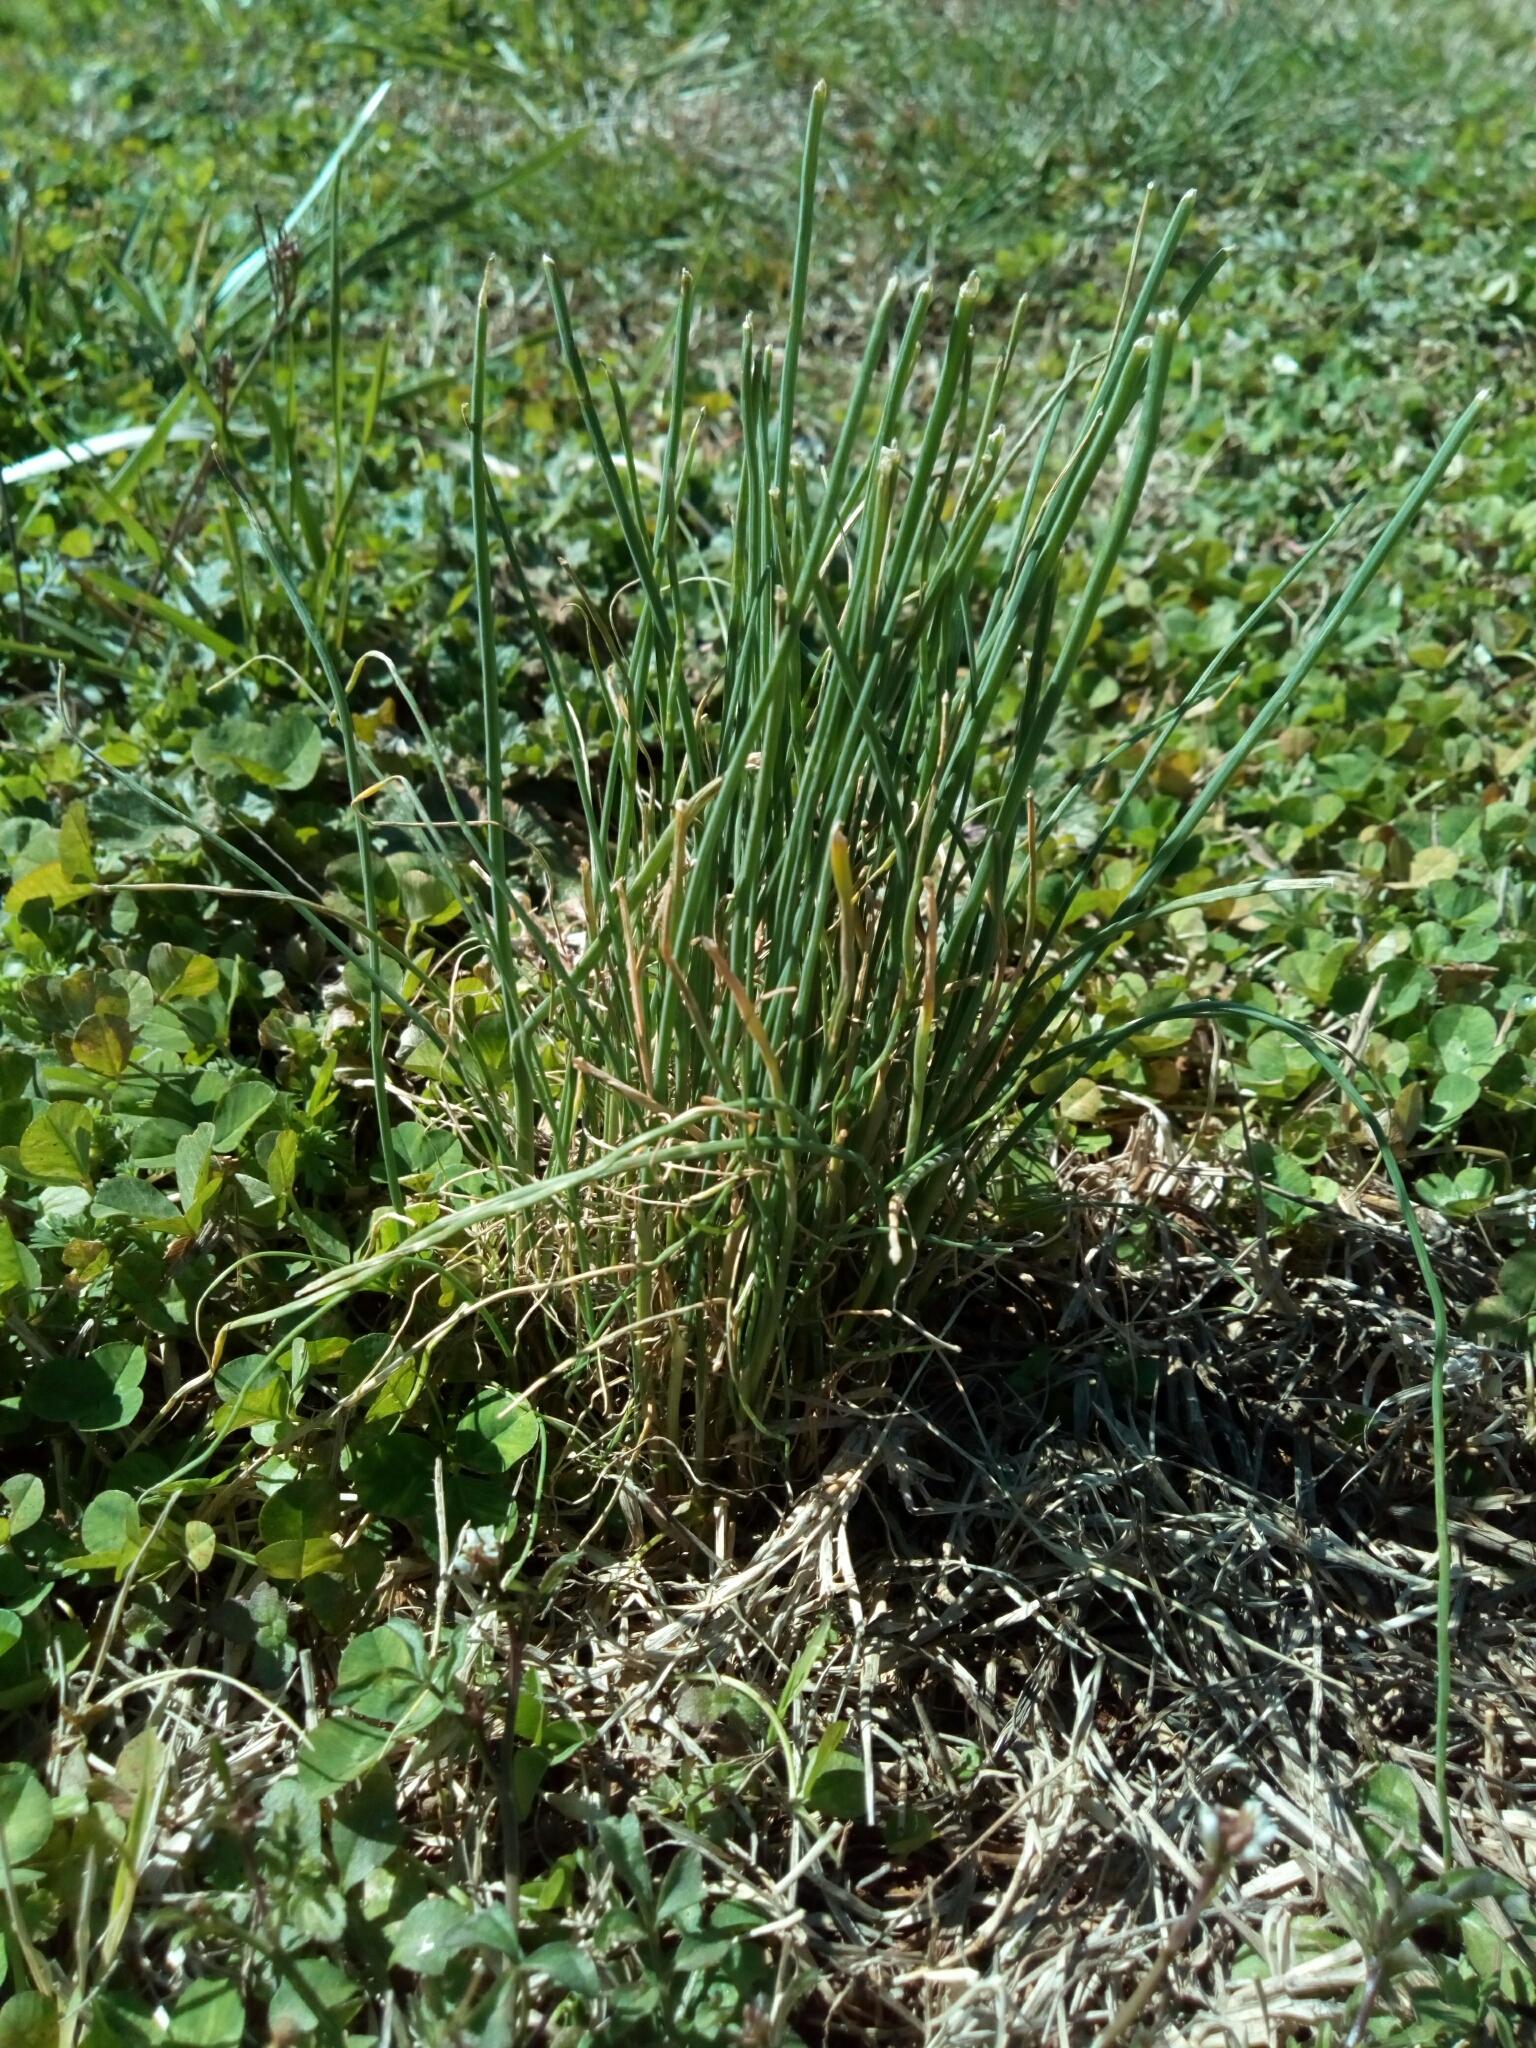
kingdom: Plantae
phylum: Tracheophyta
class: Liliopsida
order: Asparagales
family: Amaryllidaceae
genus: Allium
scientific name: Allium vineale
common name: Crow garlic
